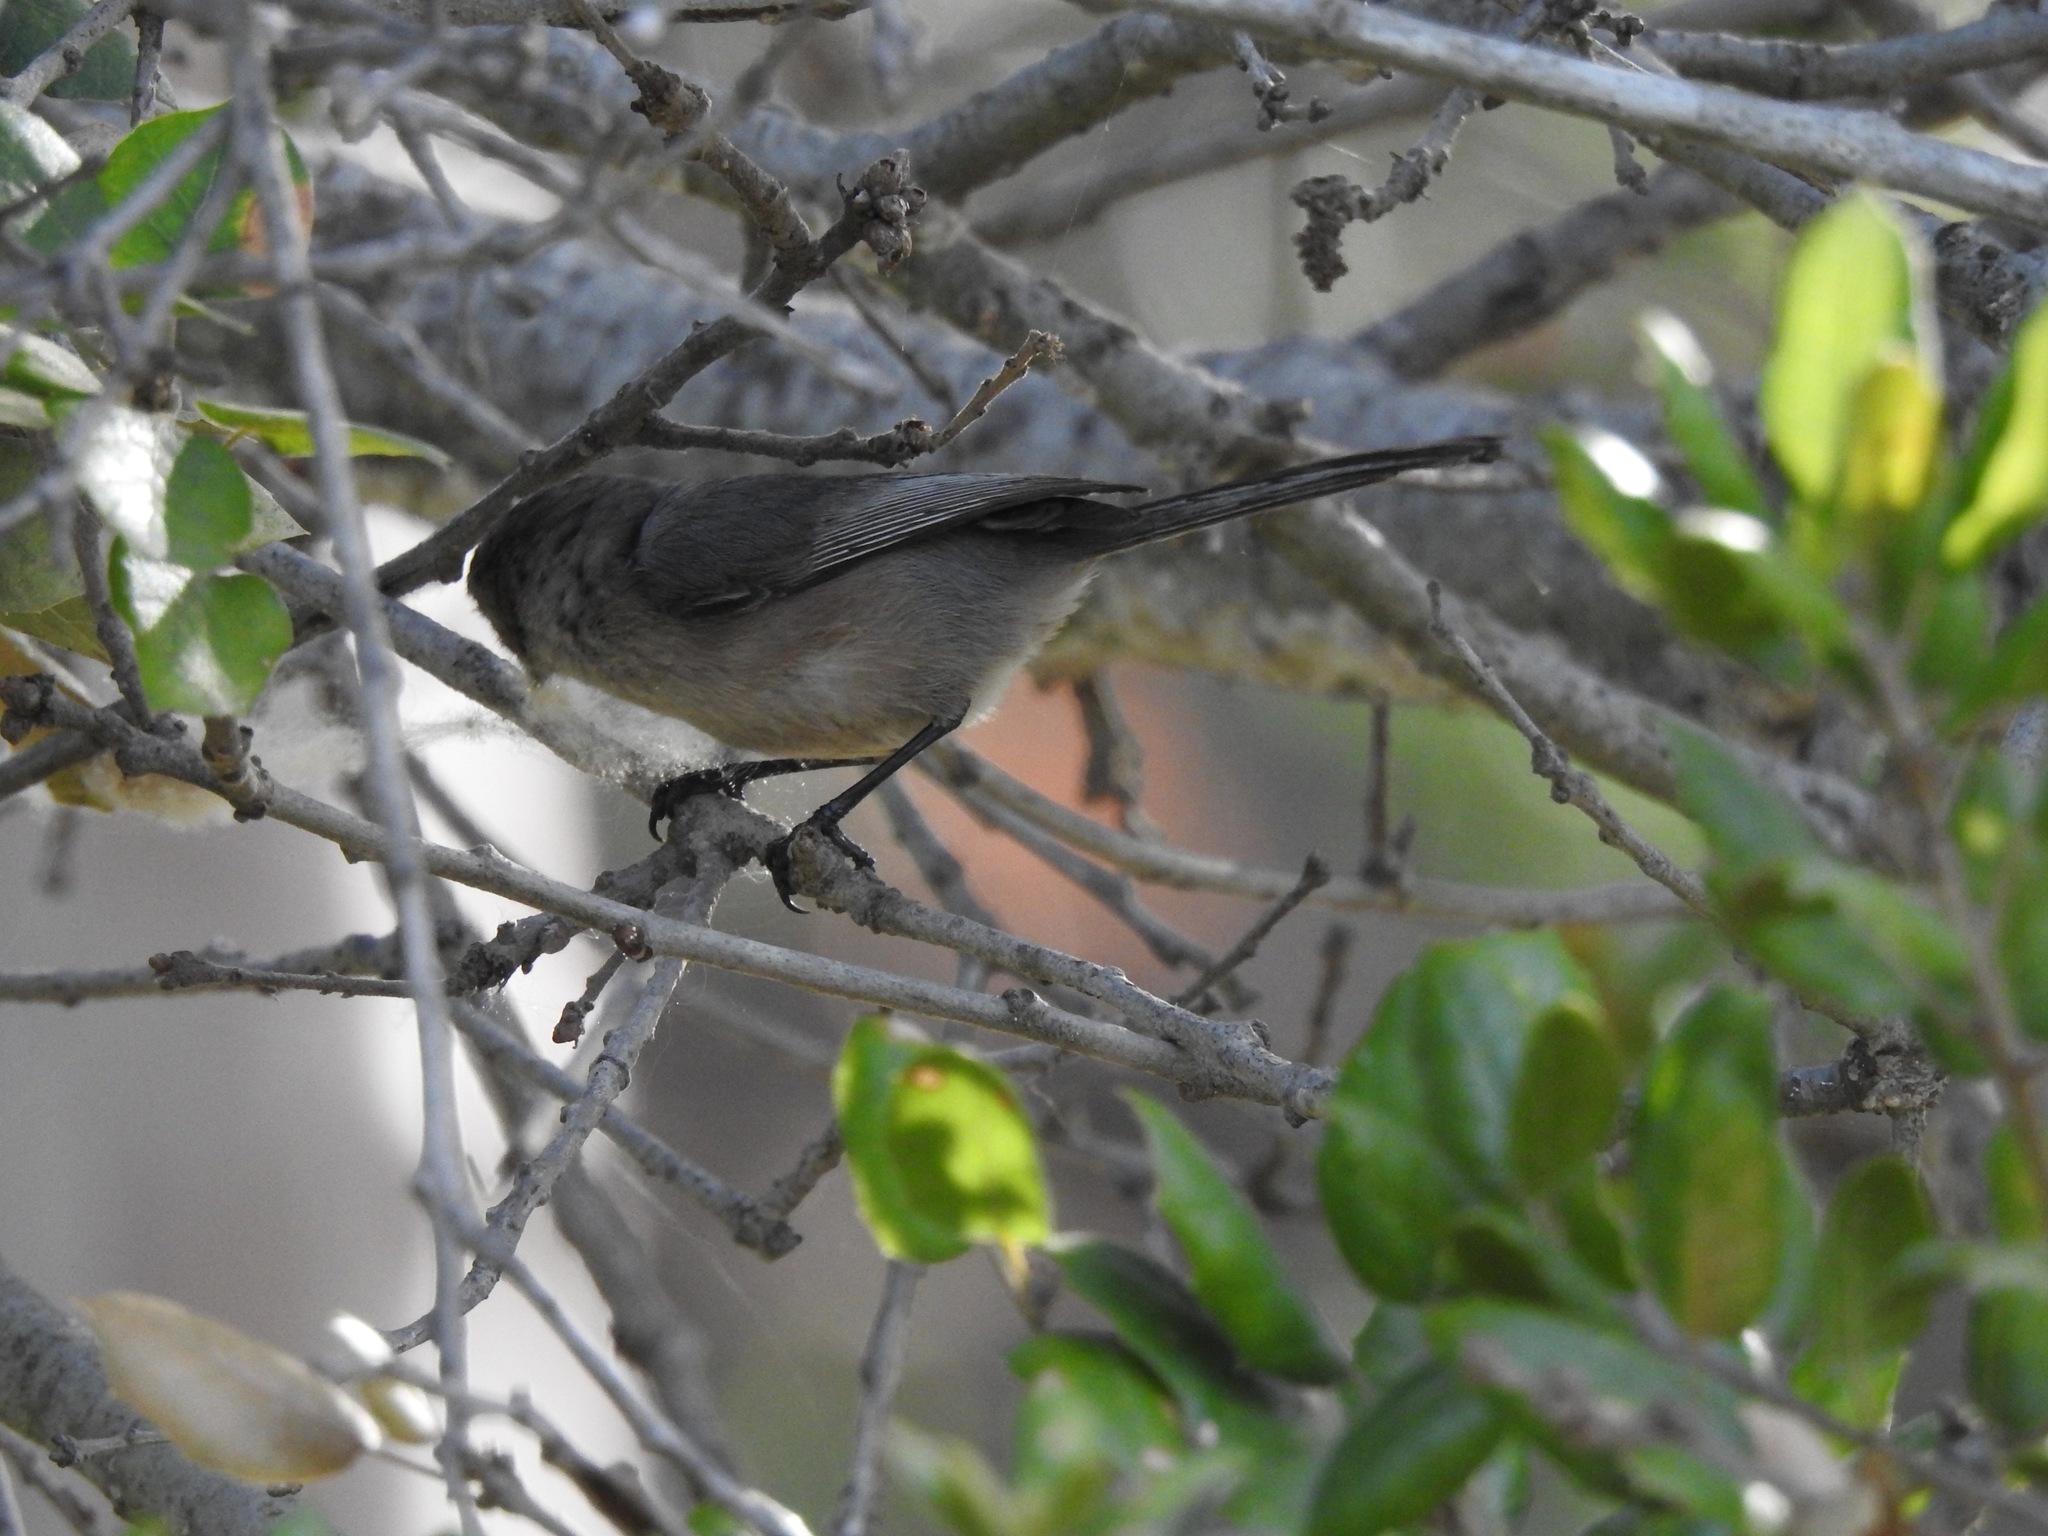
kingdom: Animalia
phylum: Chordata
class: Aves
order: Passeriformes
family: Aegithalidae
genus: Psaltriparus
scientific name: Psaltriparus minimus
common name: American bushtit
